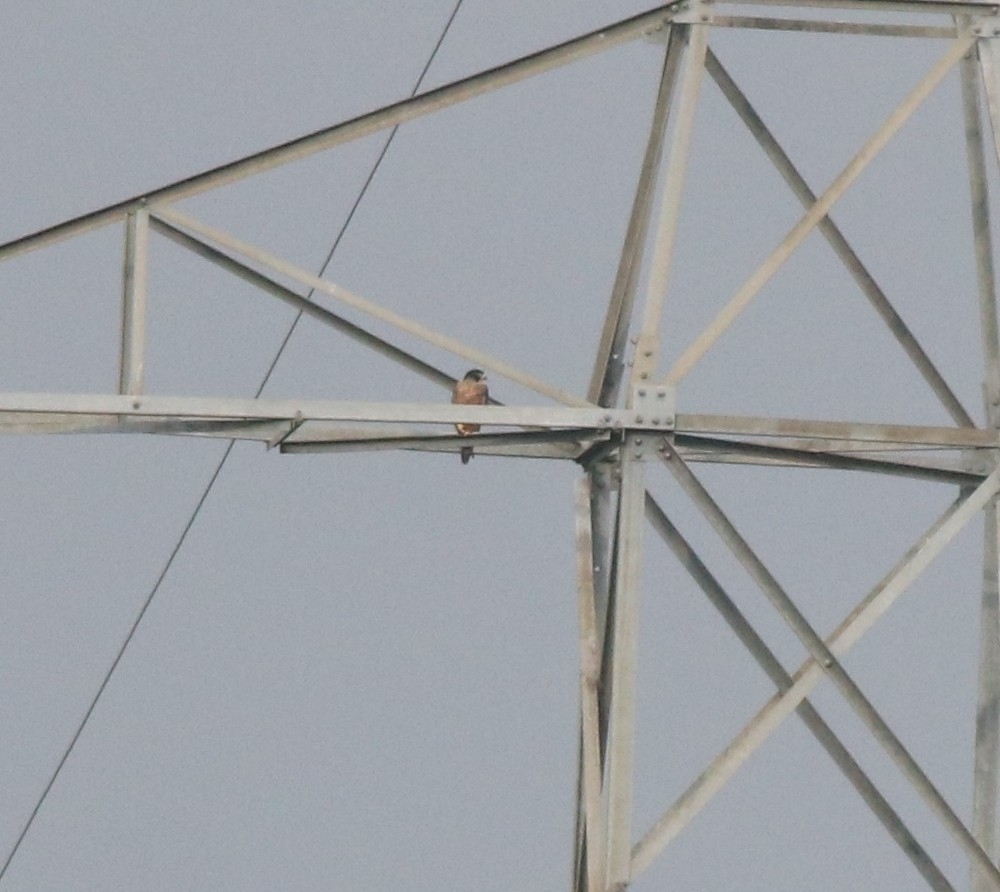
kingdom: Animalia
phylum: Chordata
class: Aves
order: Falconiformes
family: Falconidae
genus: Falco
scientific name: Falco peregrinus
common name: Peregrine falcon
